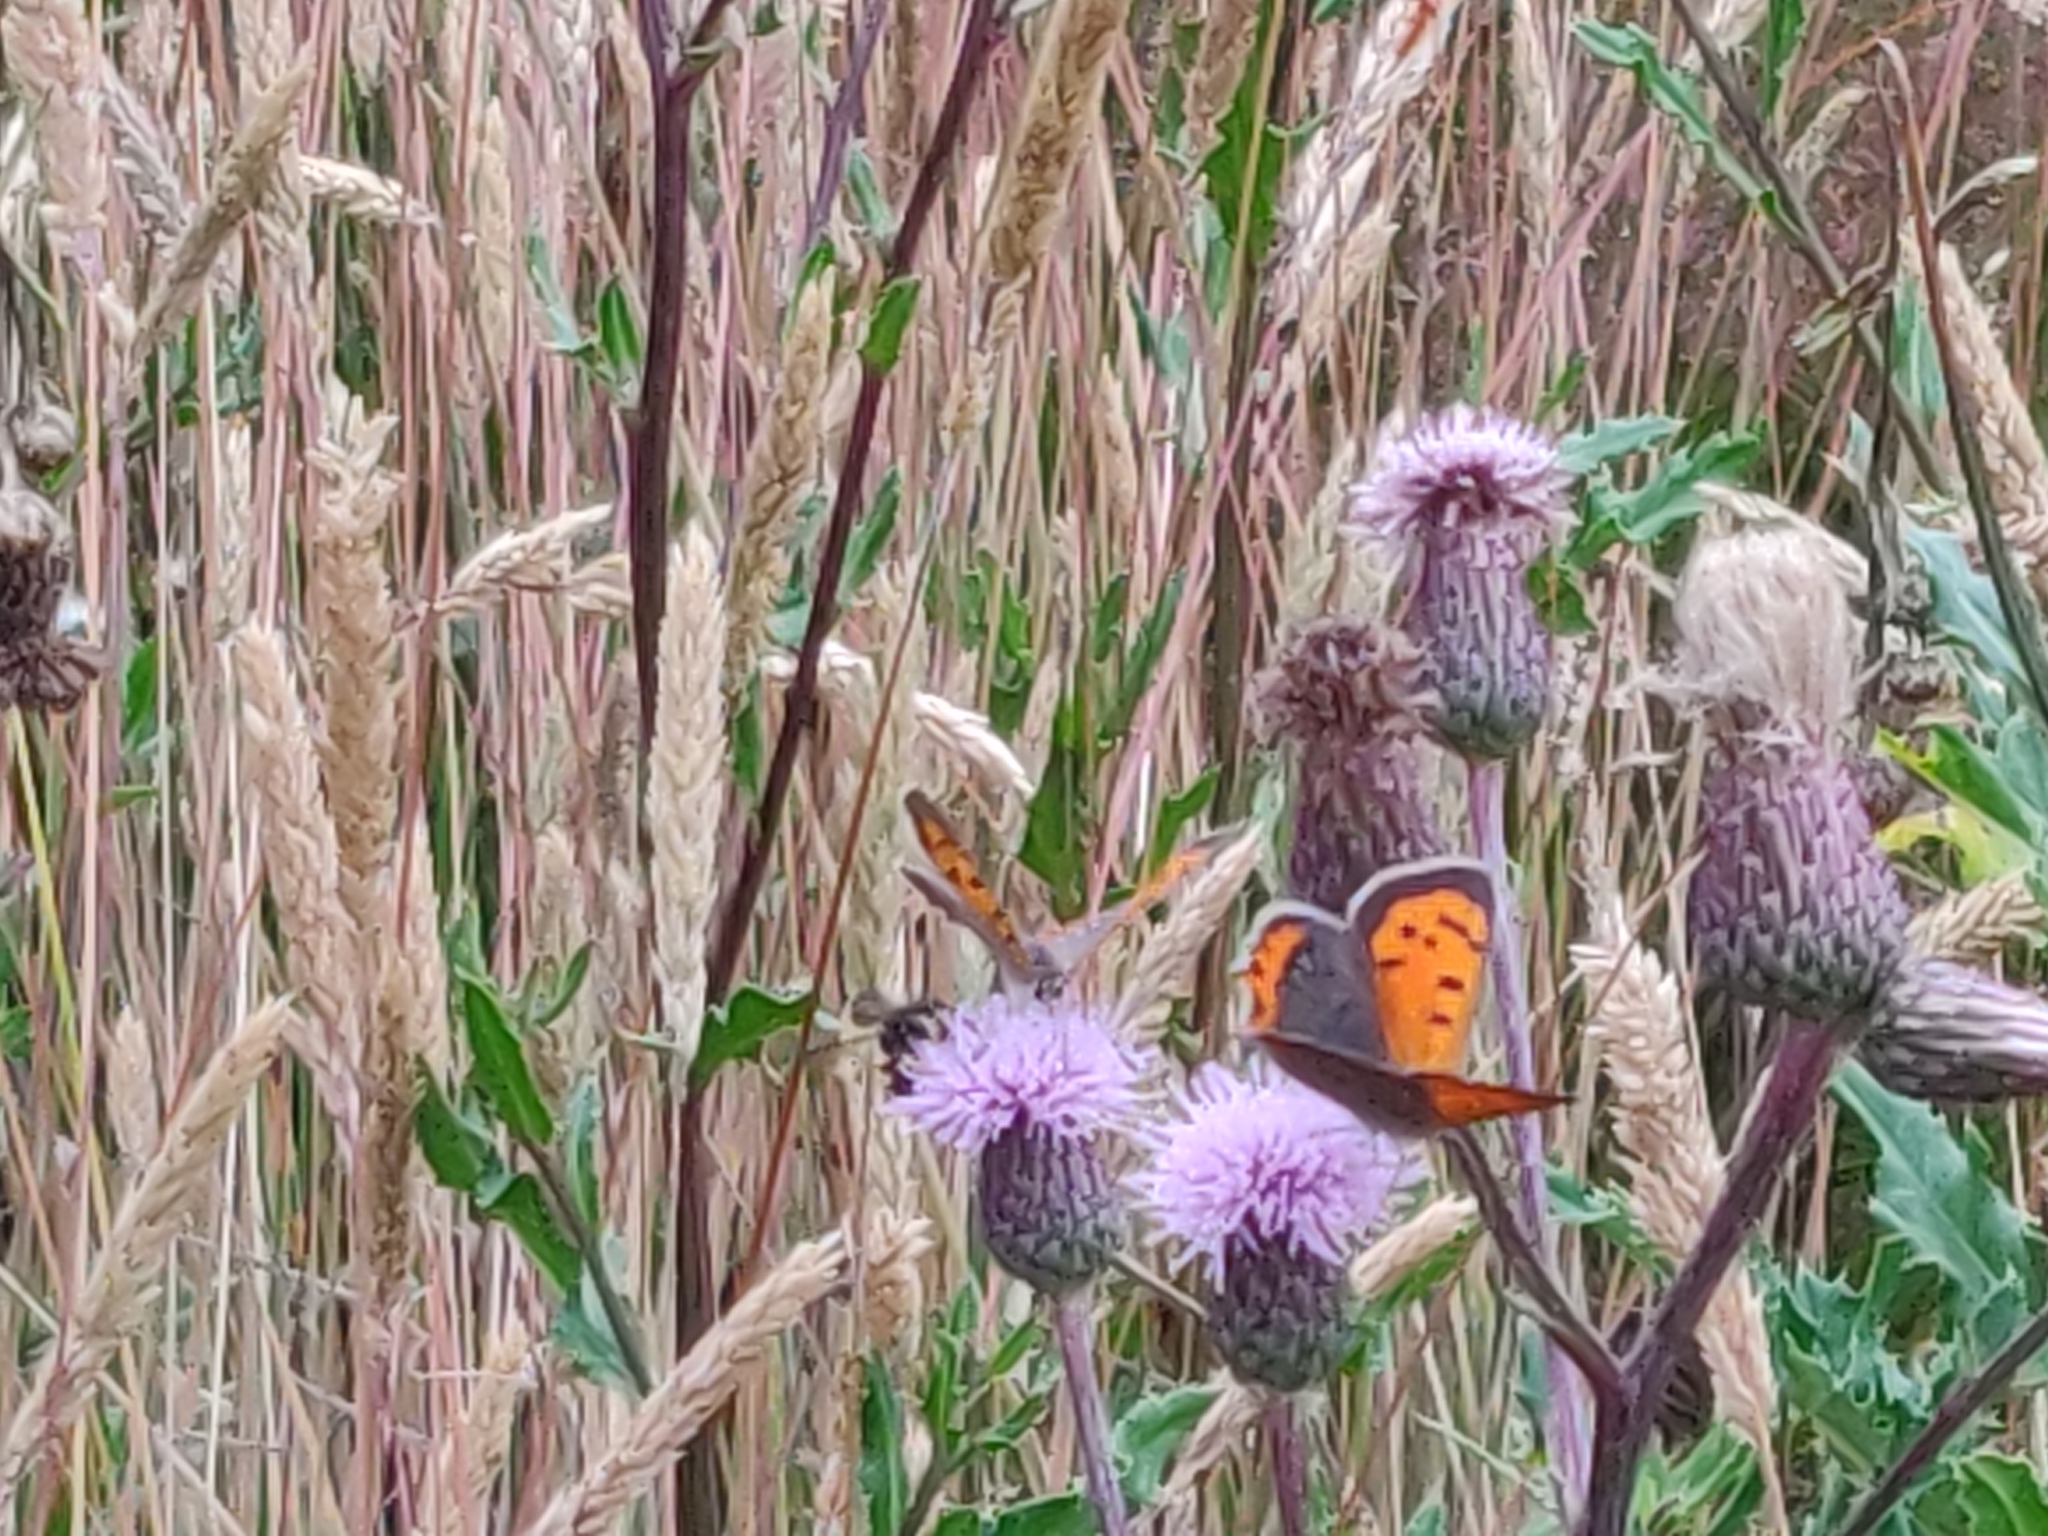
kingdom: Animalia
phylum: Arthropoda
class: Insecta
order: Lepidoptera
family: Lycaenidae
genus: Lycaena
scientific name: Lycaena phlaeas
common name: Small copper
